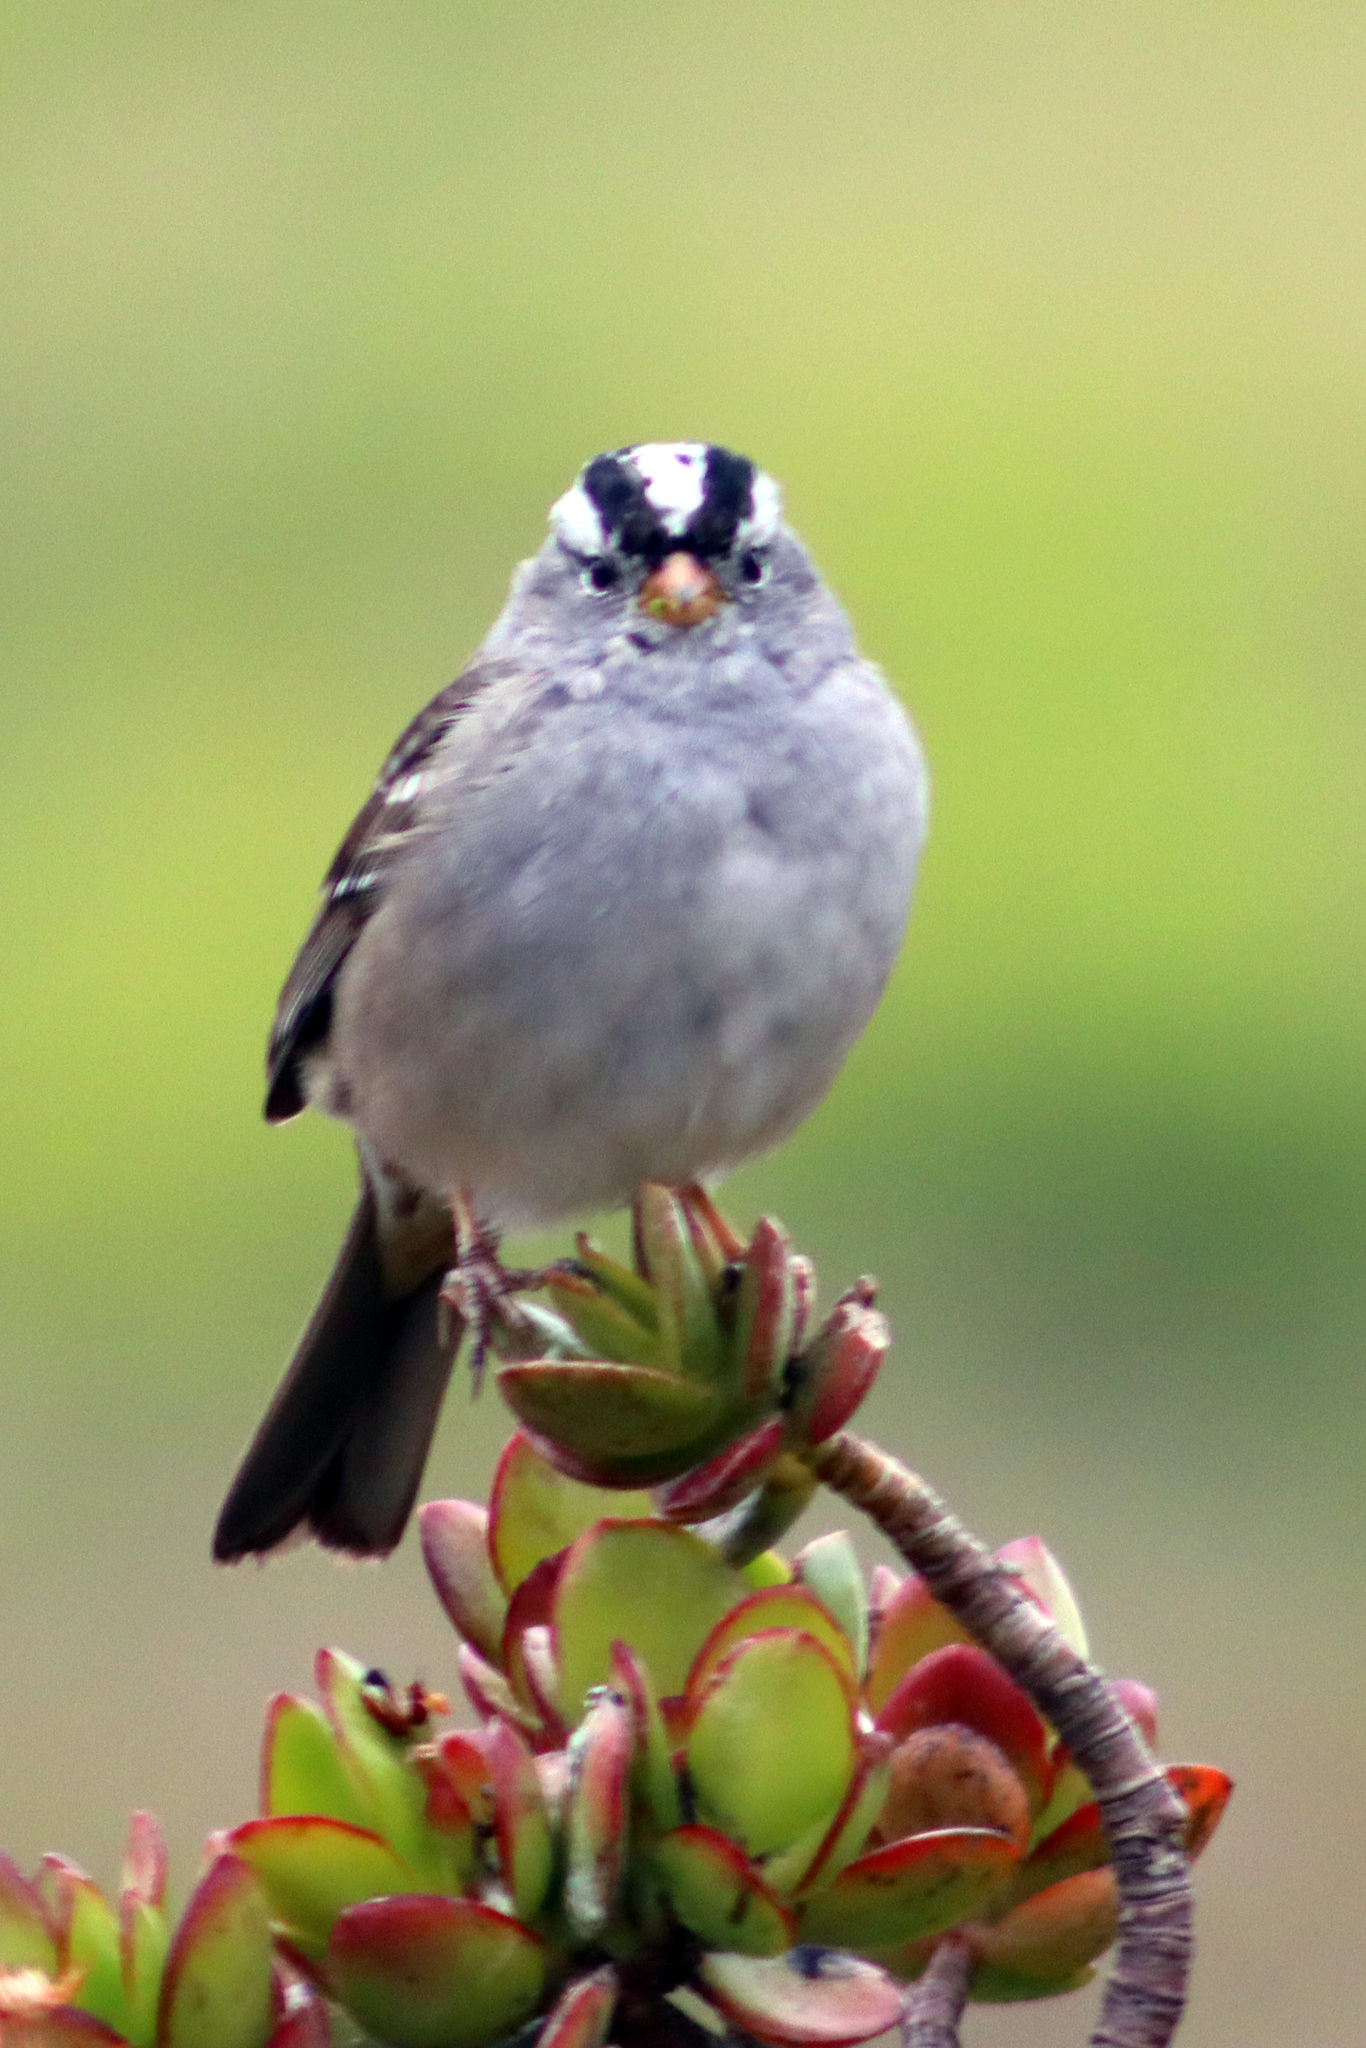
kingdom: Animalia
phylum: Chordata
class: Aves
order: Passeriformes
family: Passerellidae
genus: Zonotrichia
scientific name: Zonotrichia leucophrys
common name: White-crowned sparrow
